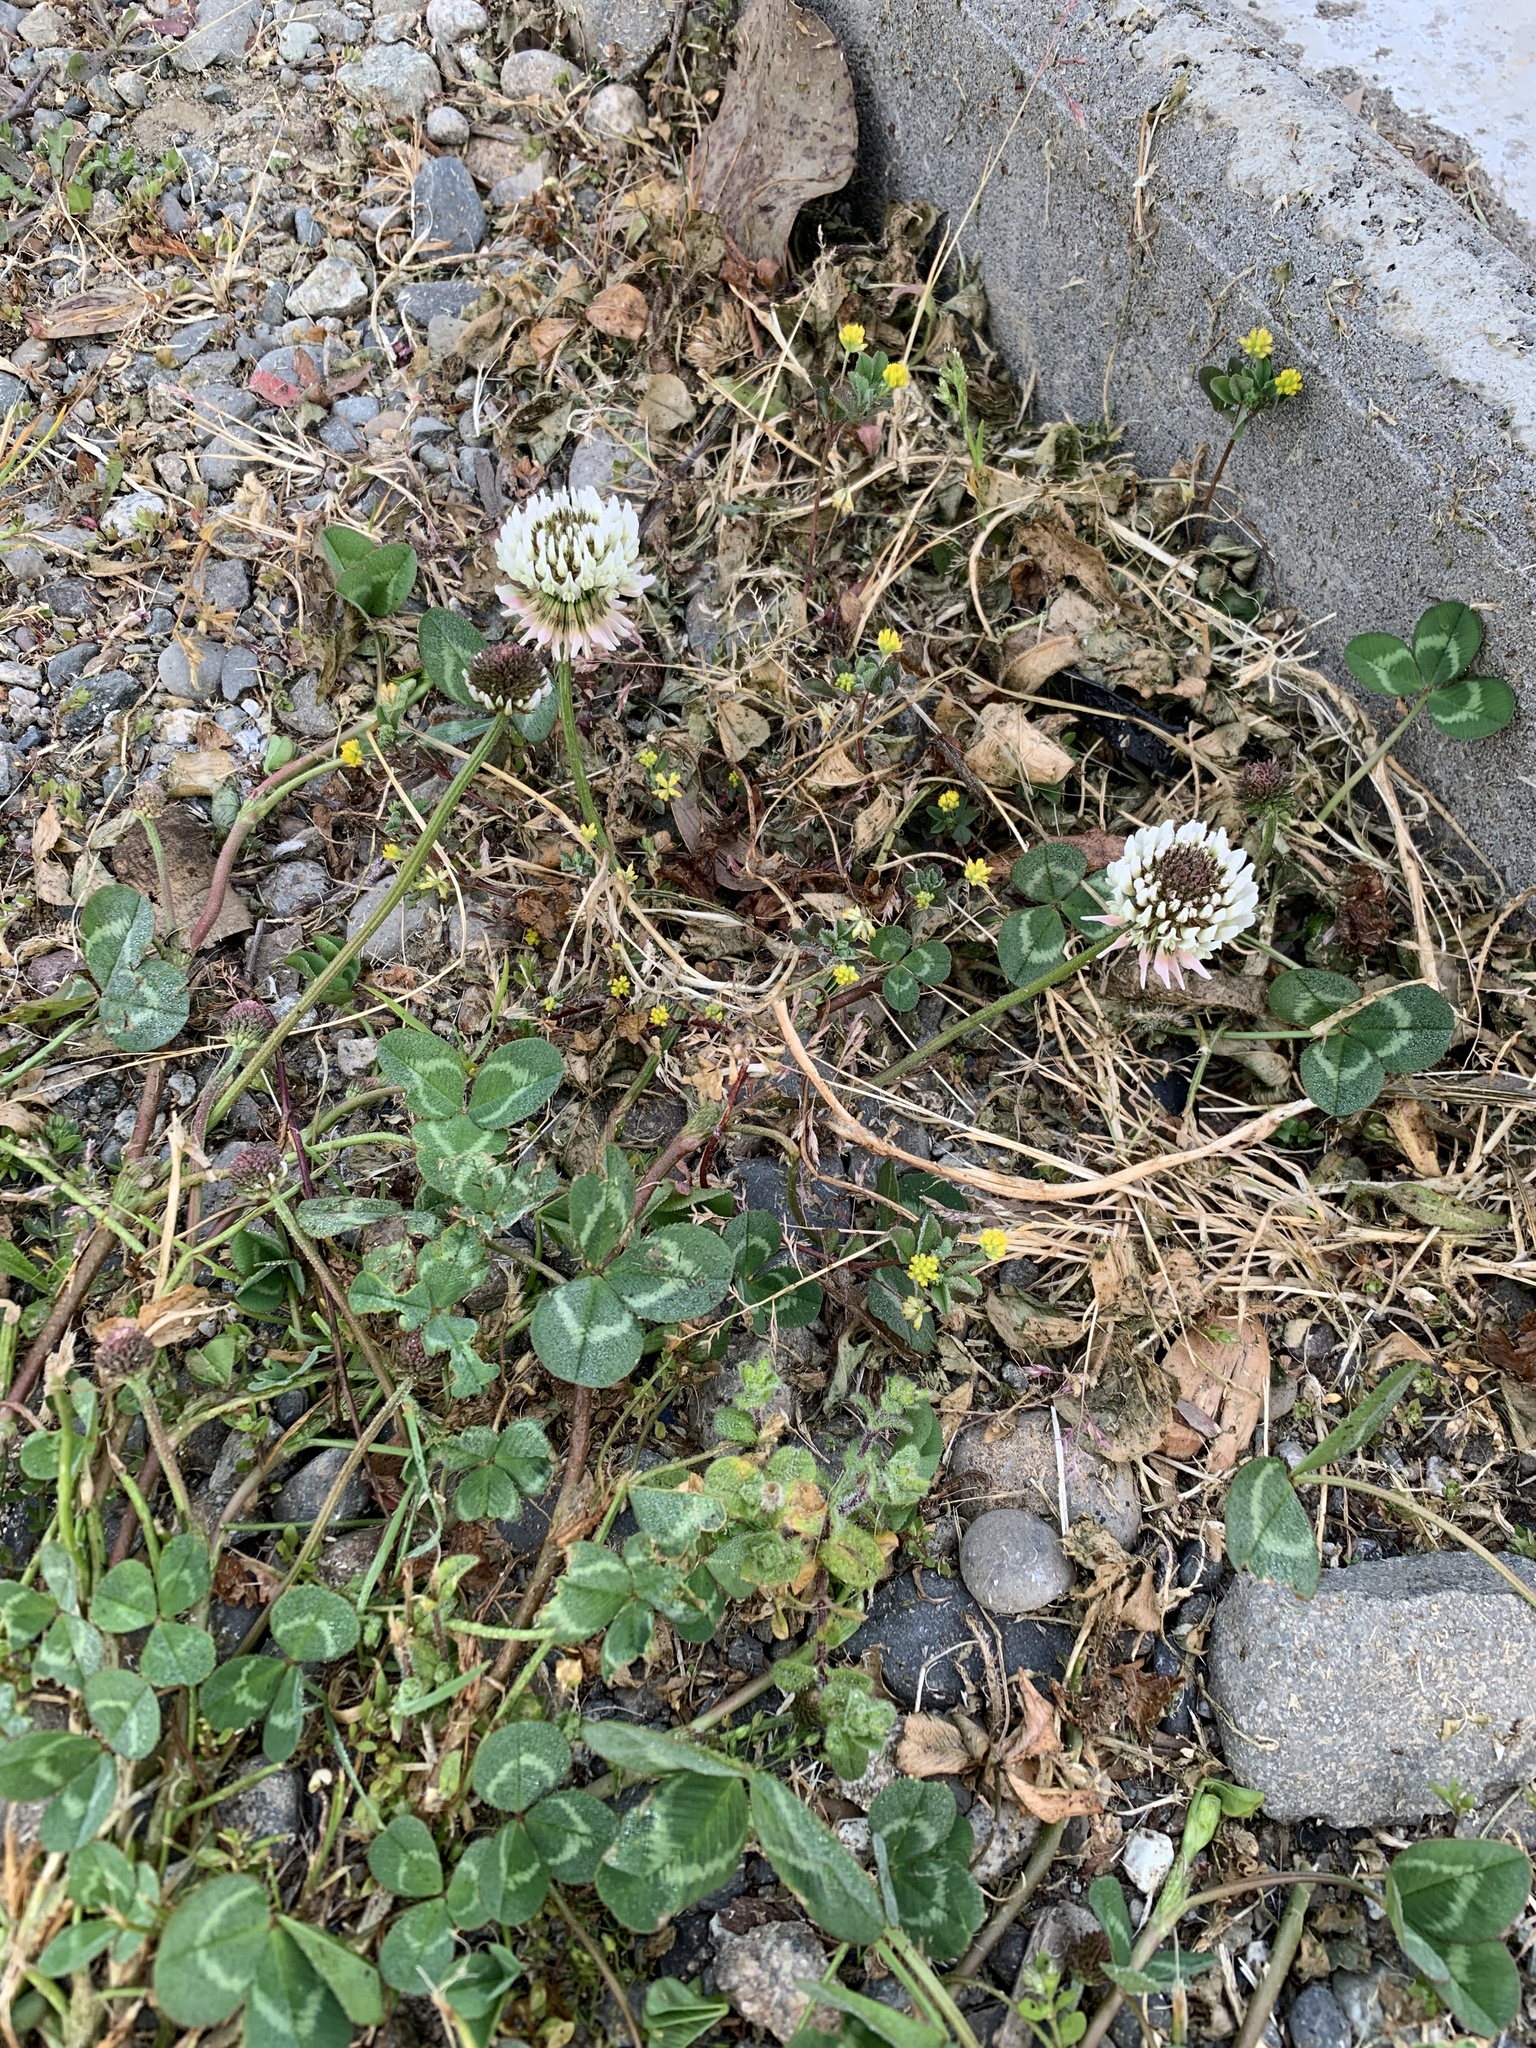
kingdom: Plantae
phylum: Tracheophyta
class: Magnoliopsida
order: Fabales
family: Fabaceae
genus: Trifolium
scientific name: Trifolium repens
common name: White clover
